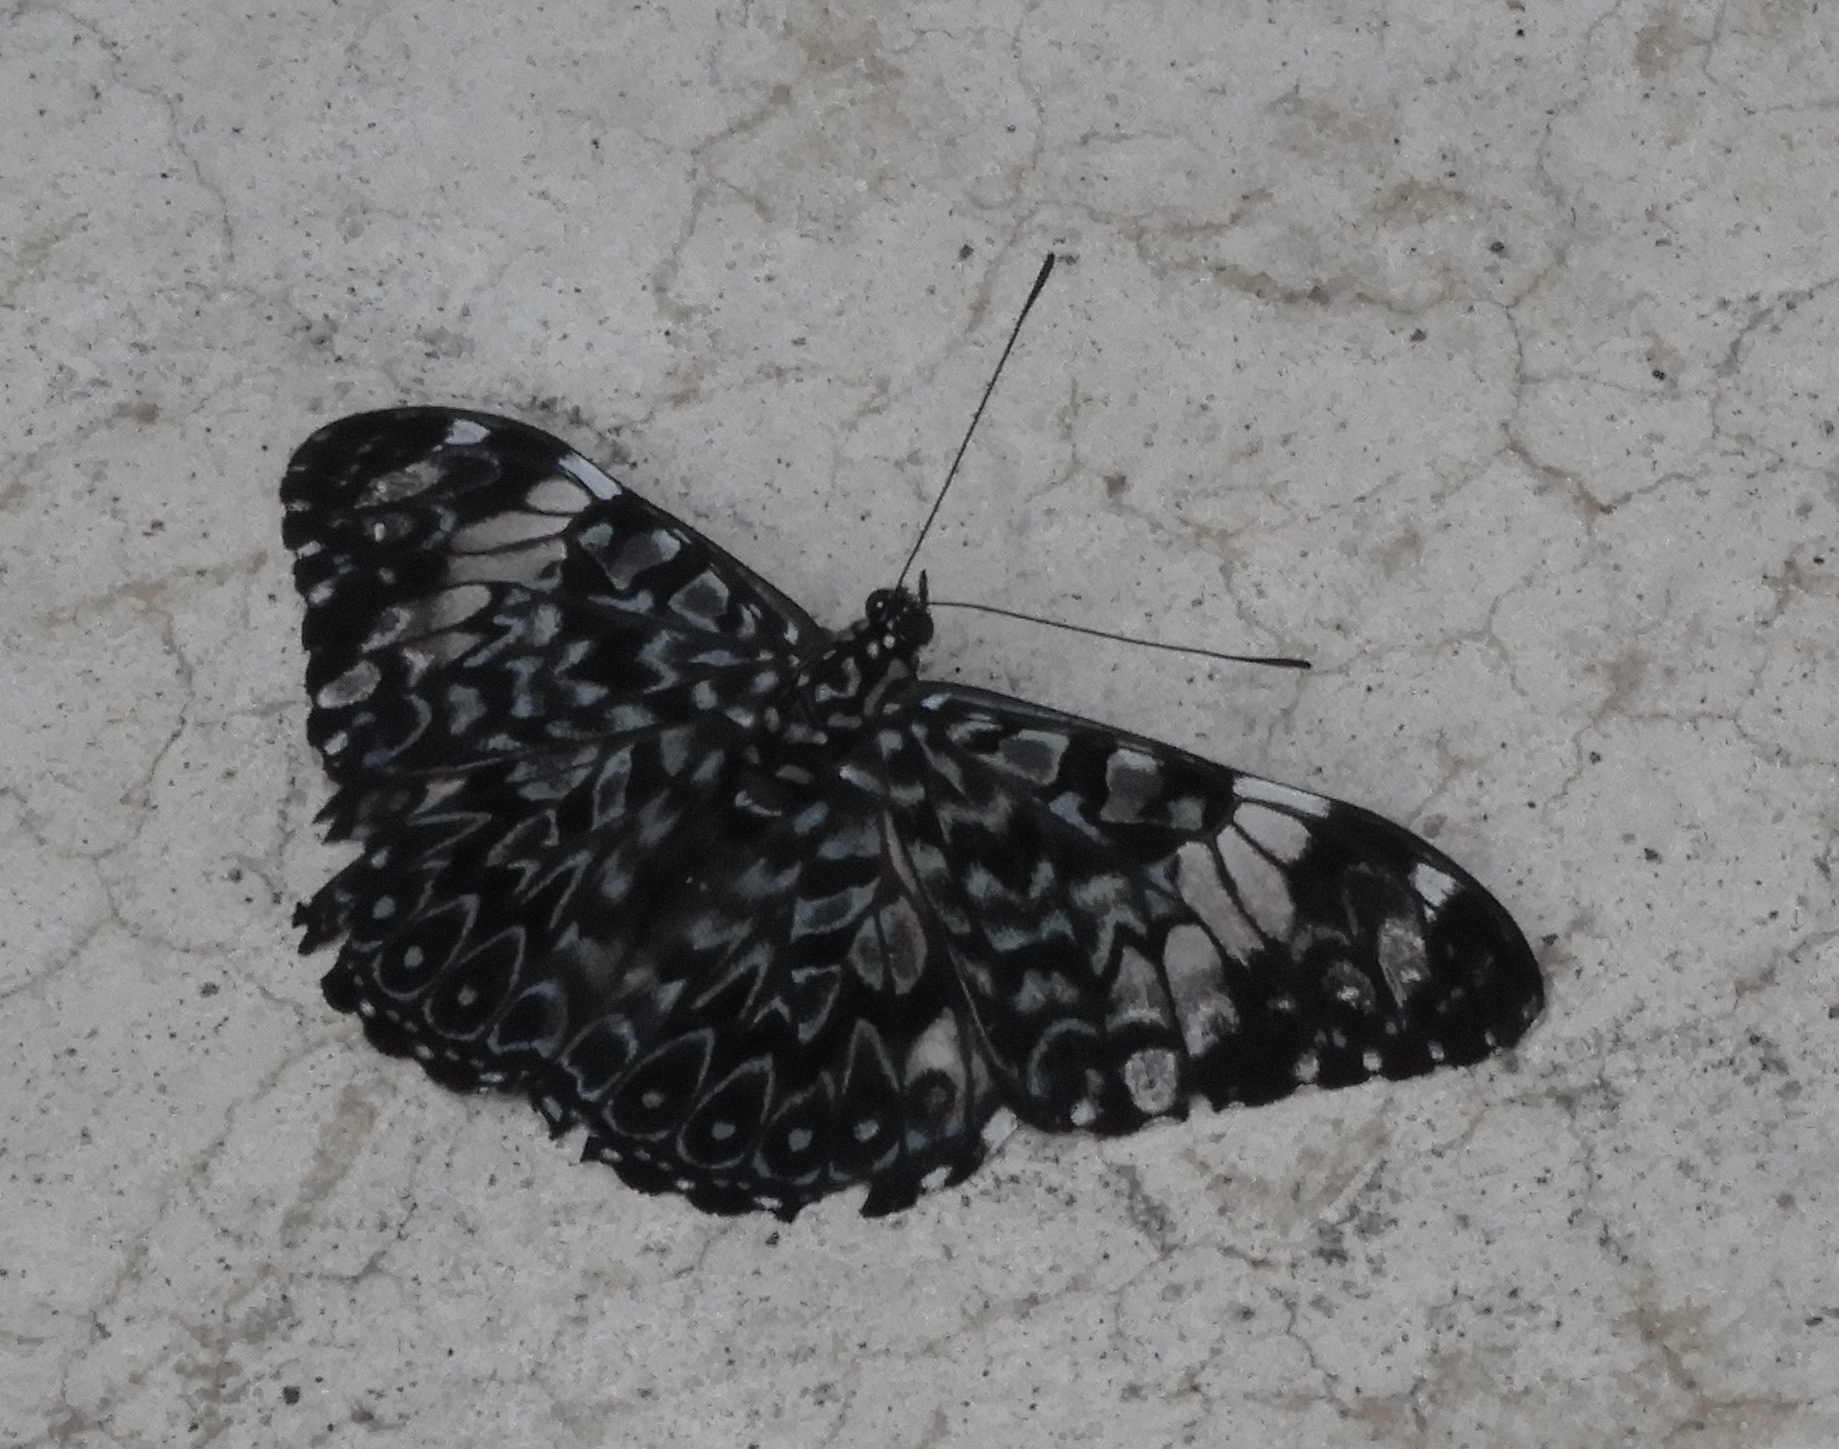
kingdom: Animalia
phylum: Arthropoda
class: Insecta
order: Lepidoptera
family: Nymphalidae
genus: Hamadryas
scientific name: Hamadryas amphinome
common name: Red cracker
